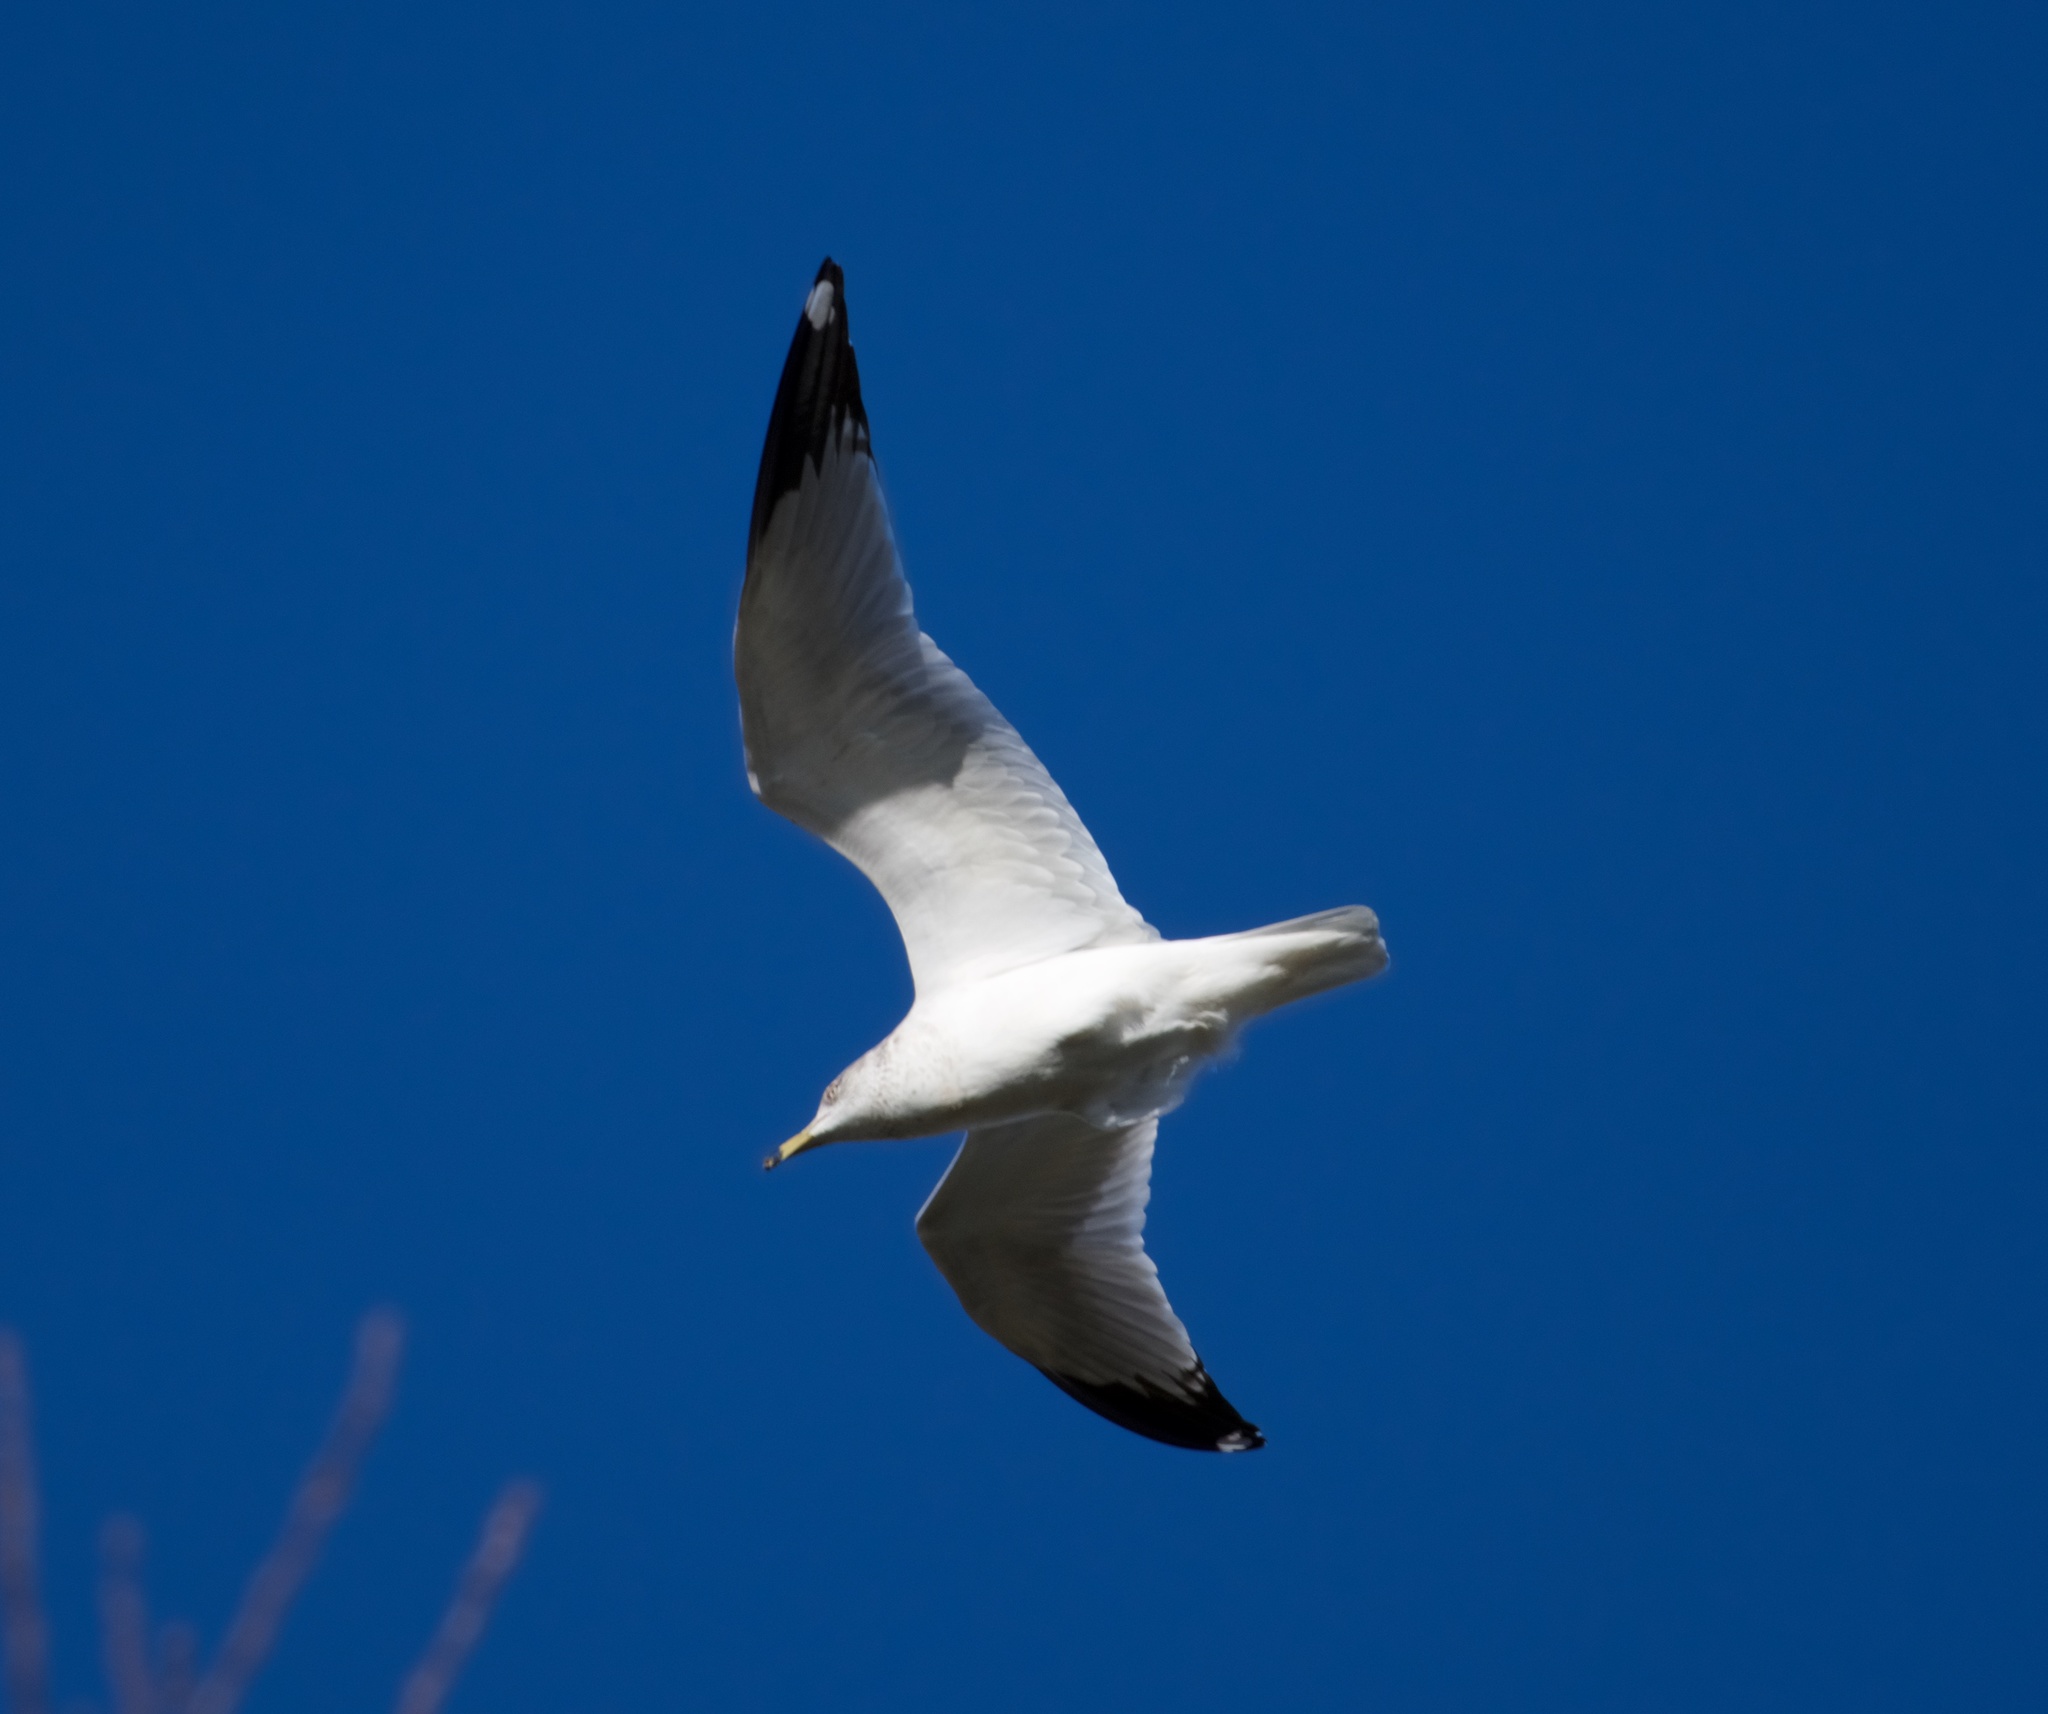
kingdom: Animalia
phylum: Chordata
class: Aves
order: Charadriiformes
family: Laridae
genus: Larus
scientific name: Larus delawarensis
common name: Ring-billed gull
